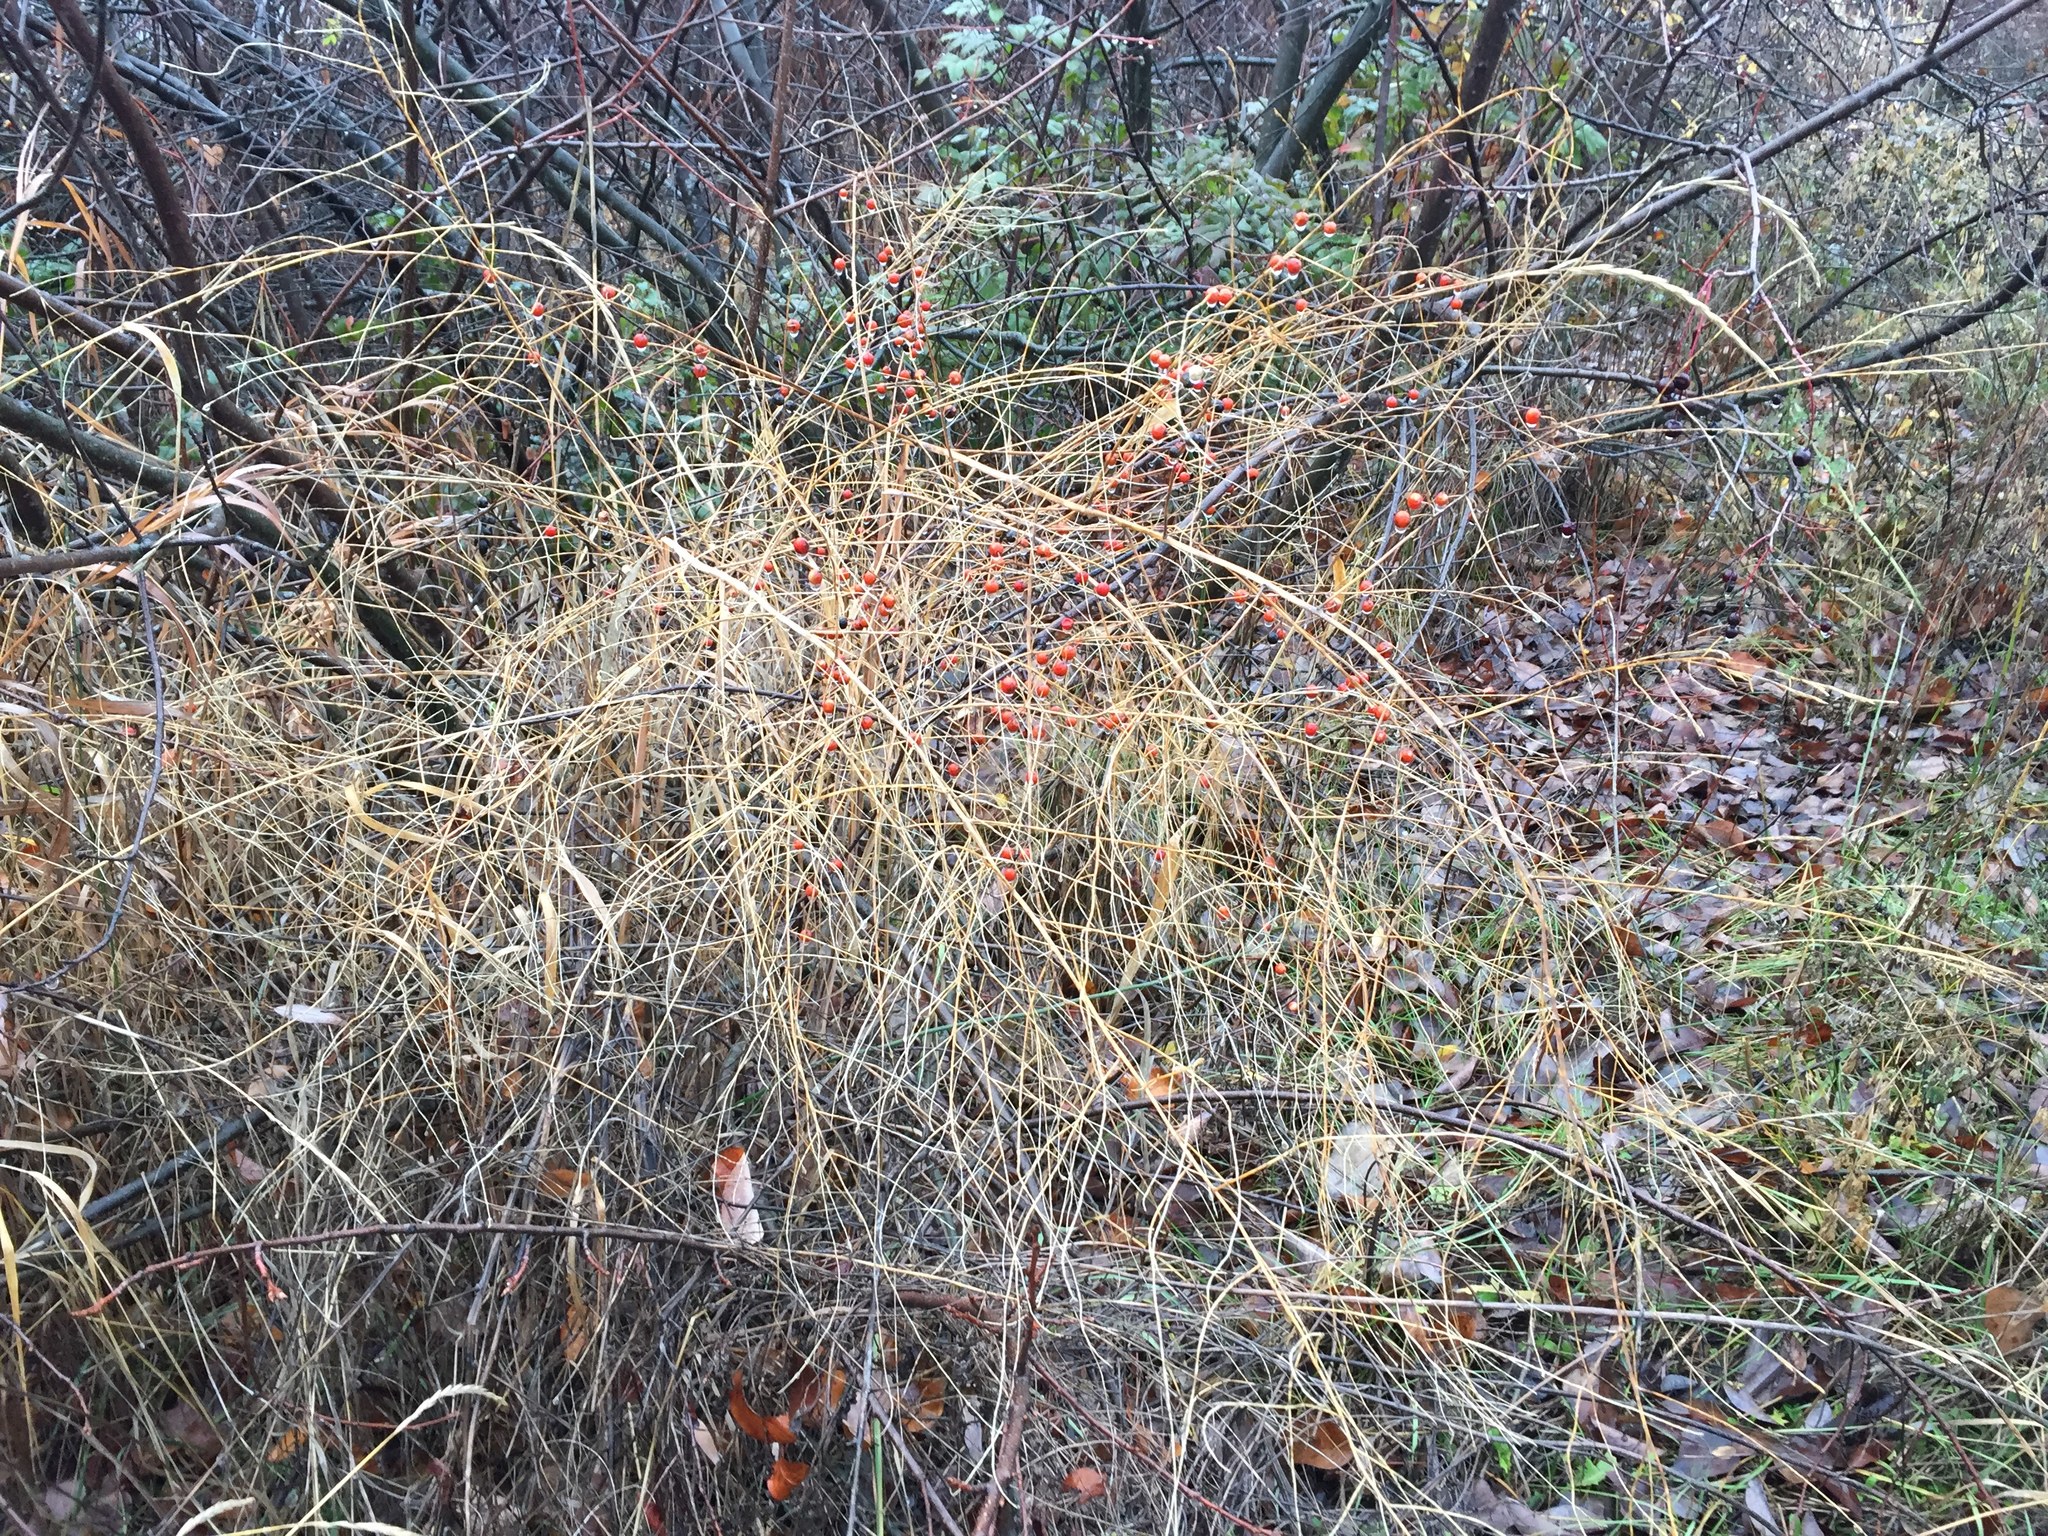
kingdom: Plantae
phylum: Tracheophyta
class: Liliopsida
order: Asparagales
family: Asparagaceae
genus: Asparagus
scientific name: Asparagus officinalis
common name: Garden asparagus
